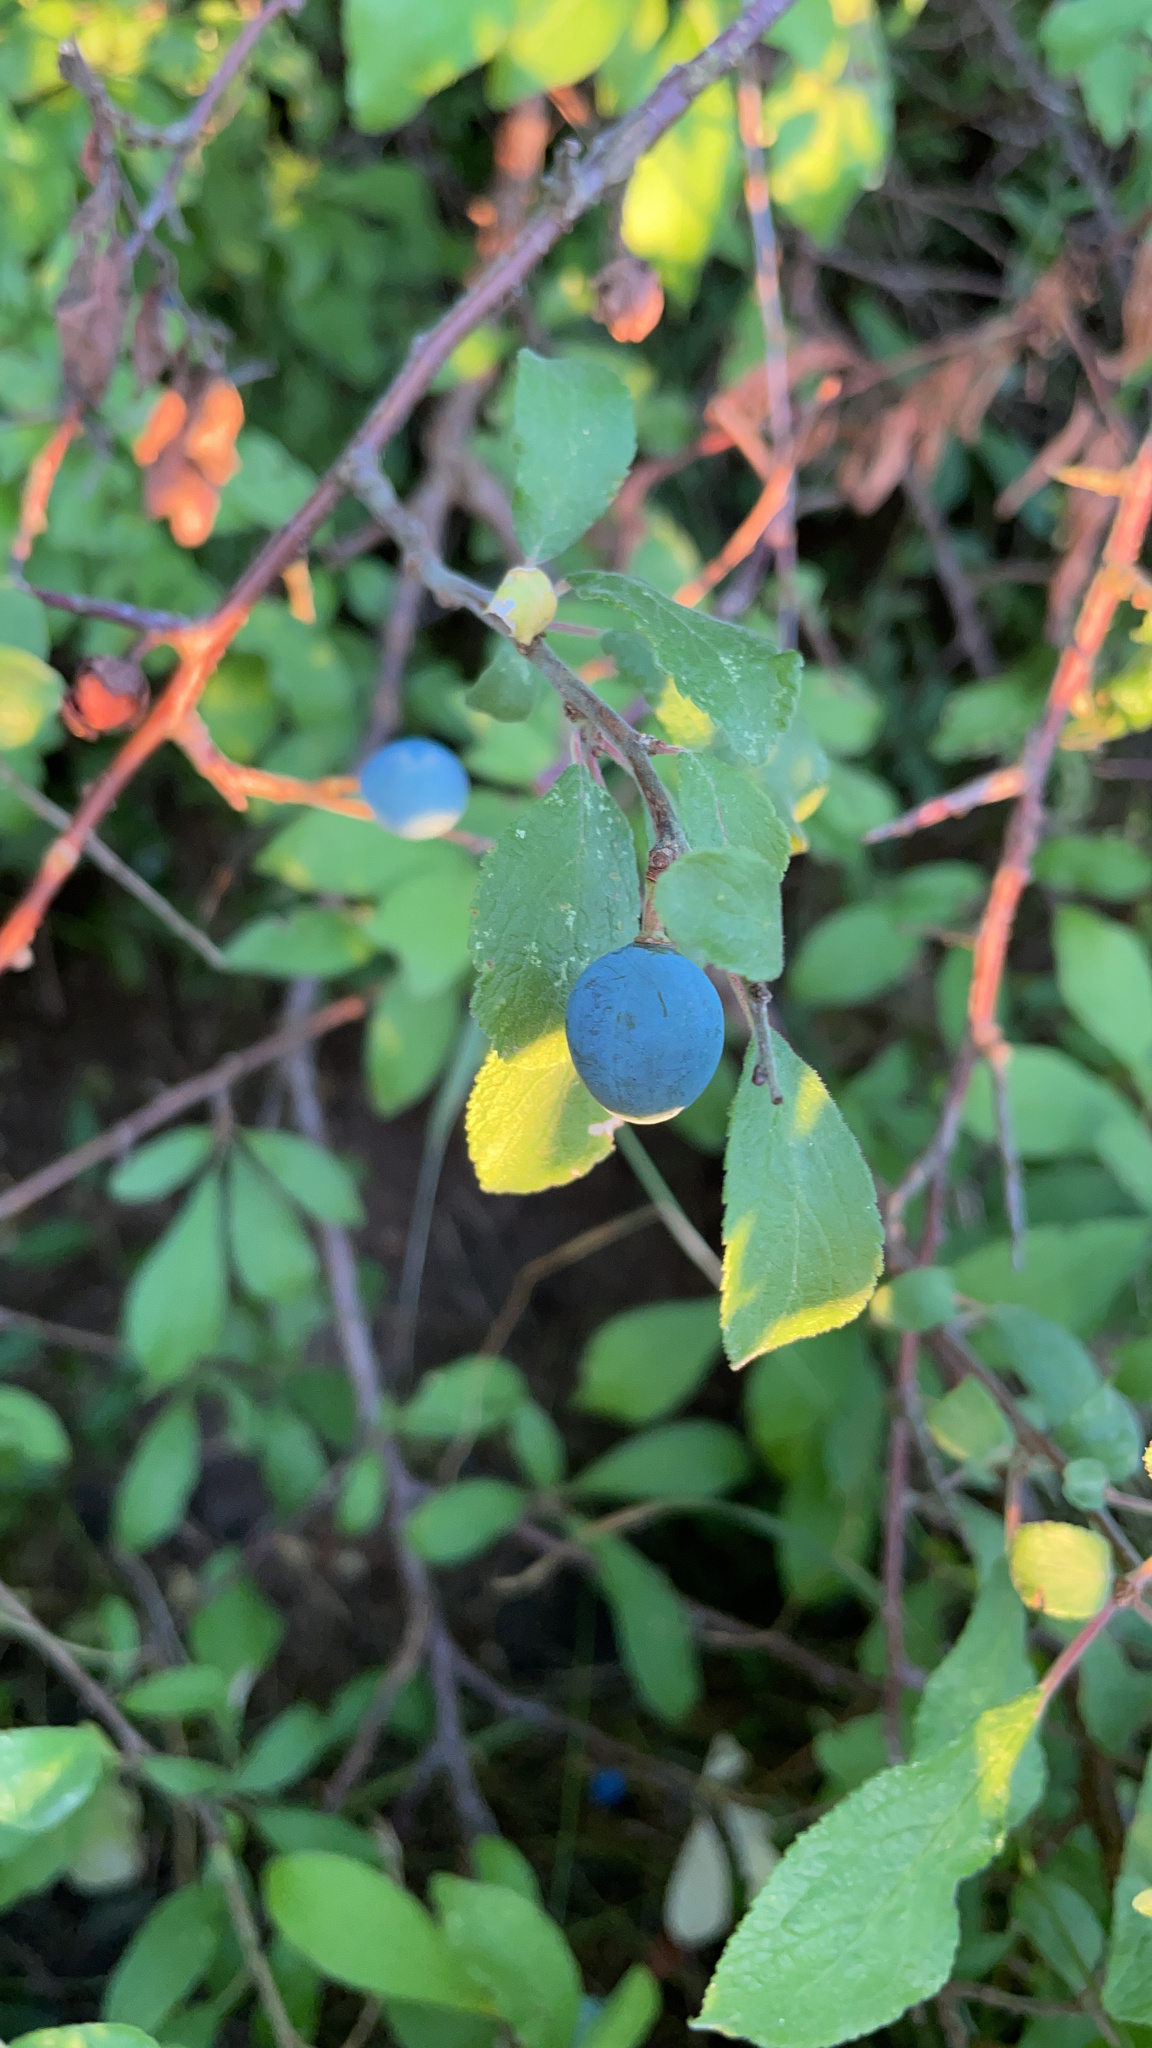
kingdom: Plantae
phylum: Tracheophyta
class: Magnoliopsida
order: Rosales
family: Rosaceae
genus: Prunus
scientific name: Prunus spinosa
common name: Blackthorn
